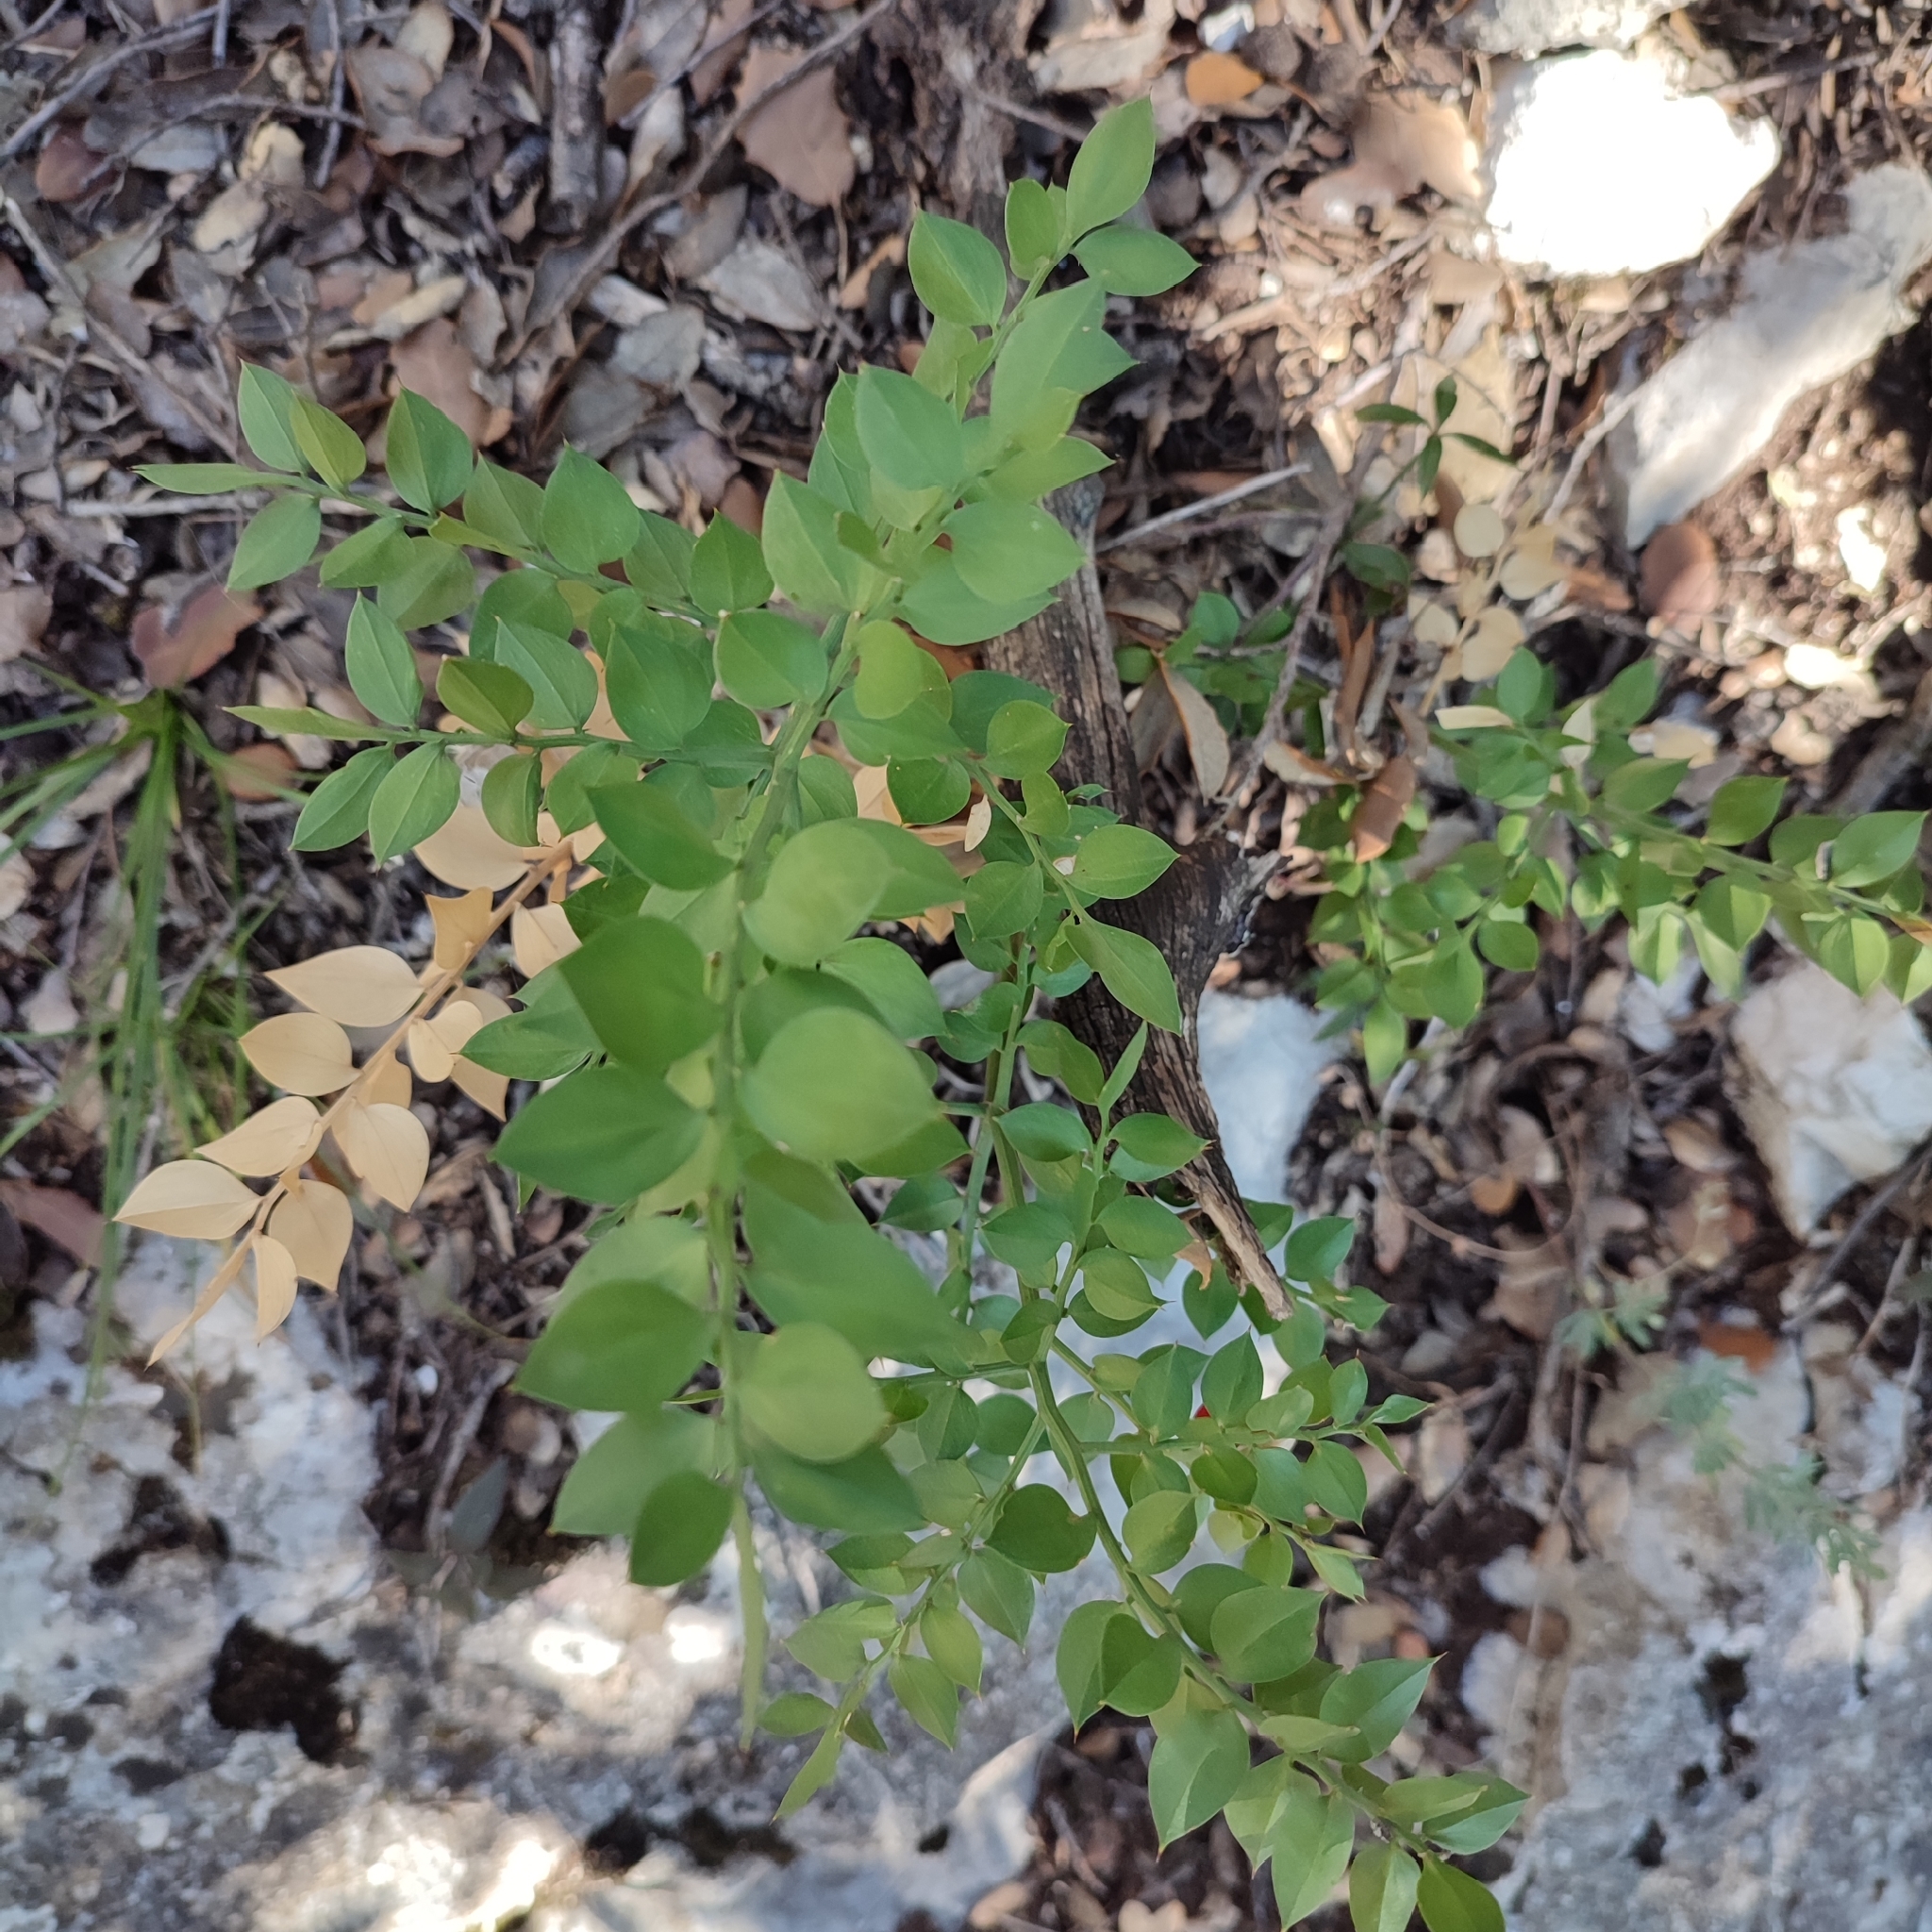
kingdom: Plantae
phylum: Tracheophyta
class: Liliopsida
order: Asparagales
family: Asparagaceae
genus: Ruscus
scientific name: Ruscus aculeatus
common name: Butcher's-broom
